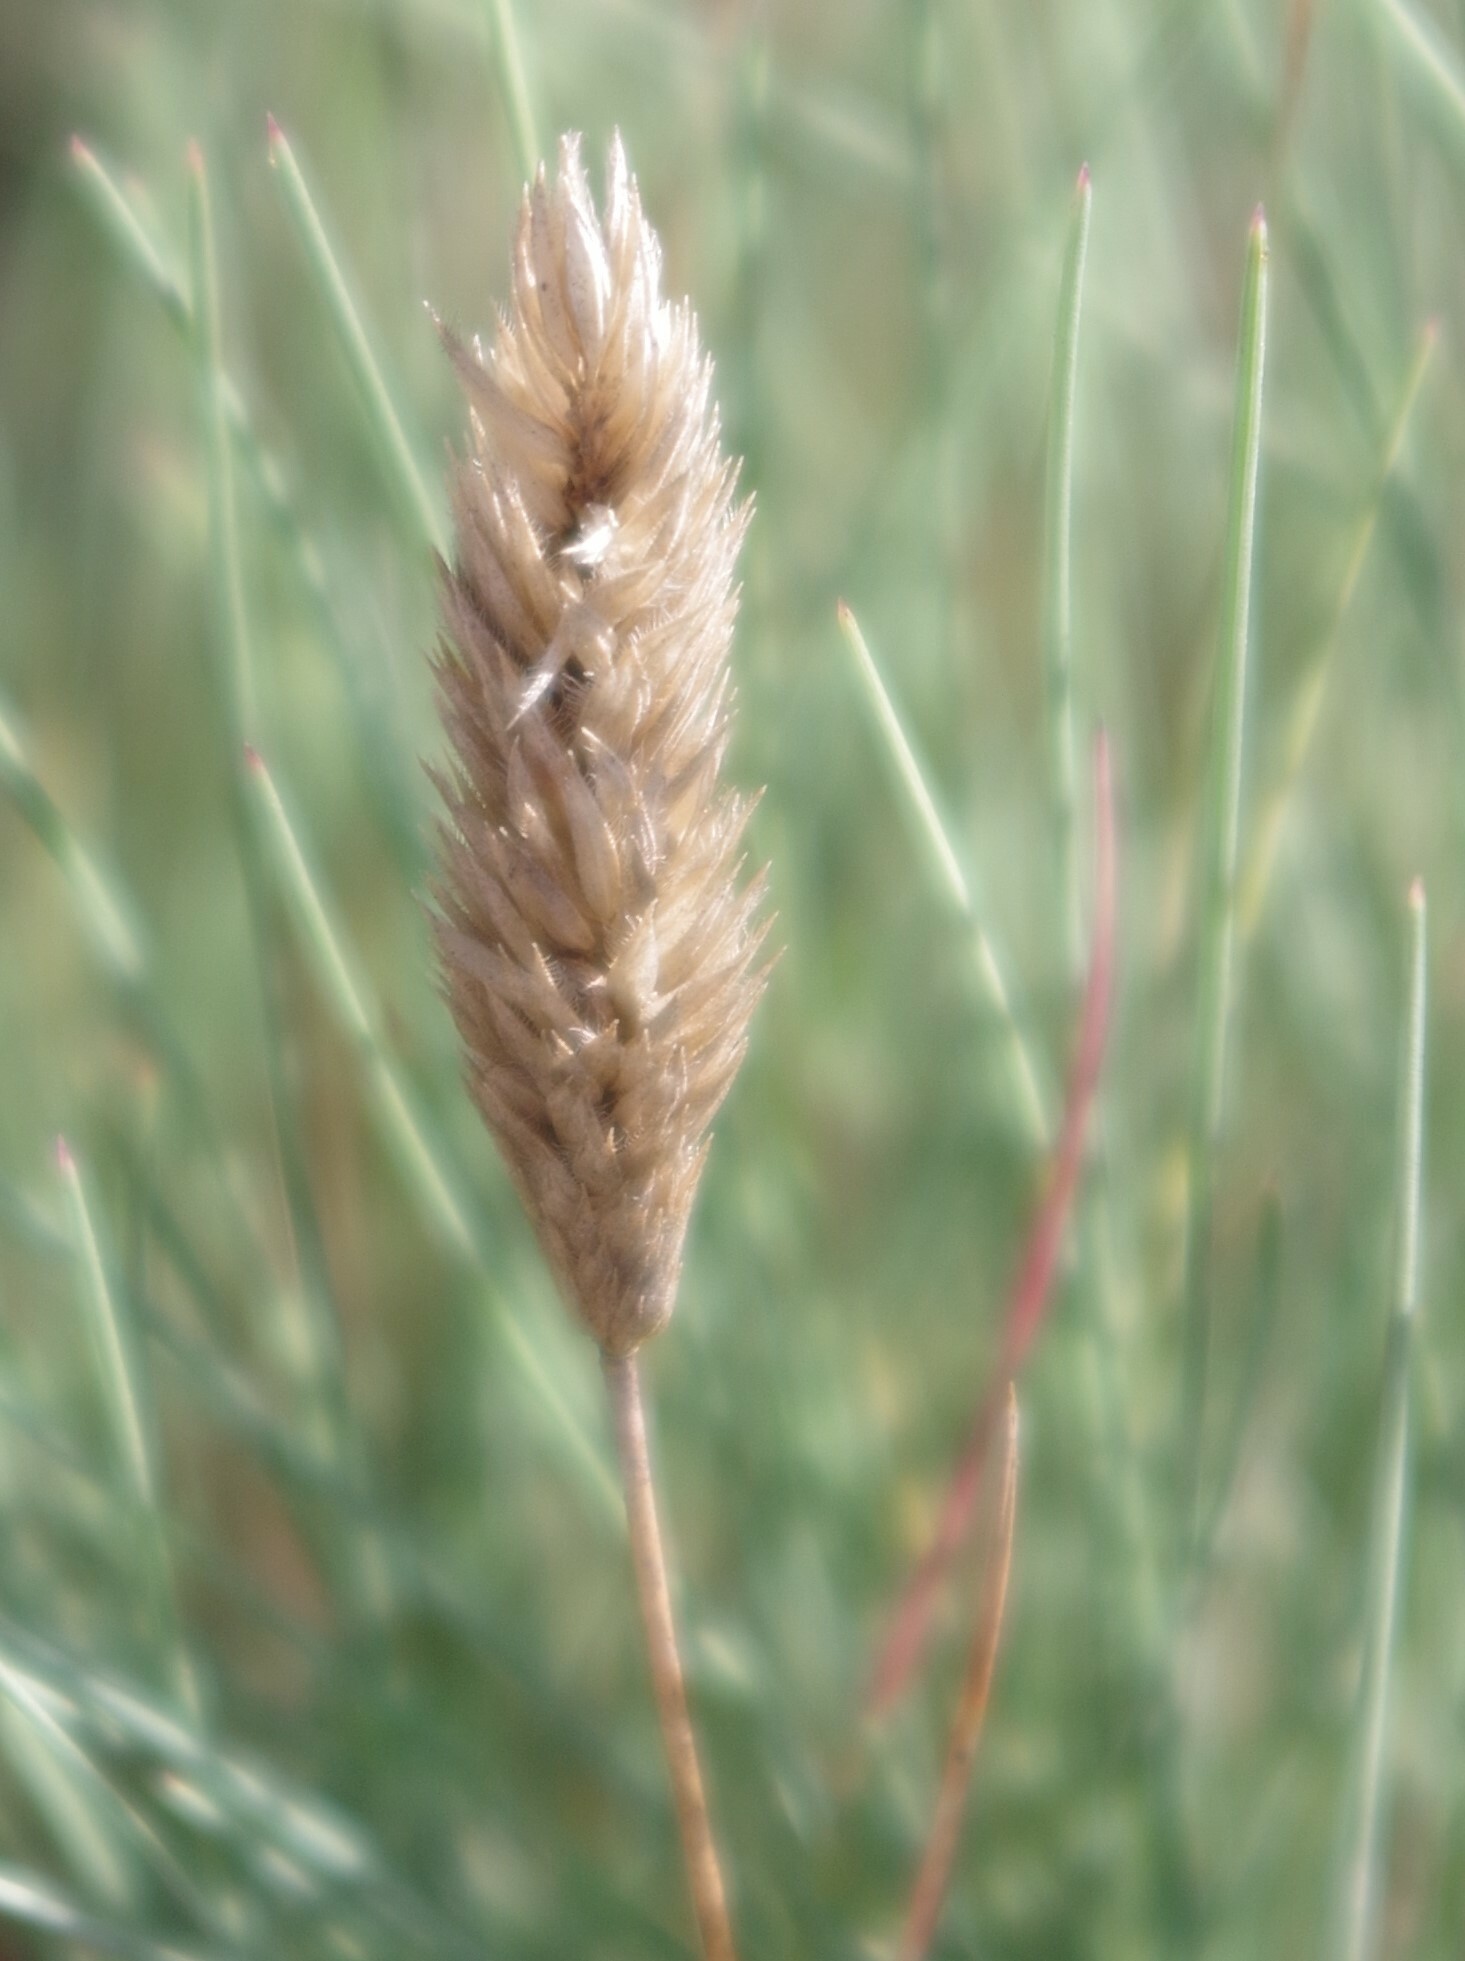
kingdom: Plantae
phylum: Tracheophyta
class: Liliopsida
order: Poales
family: Poaceae
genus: Corynephorus
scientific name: Corynephorus canescens
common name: Grey hair-grass
